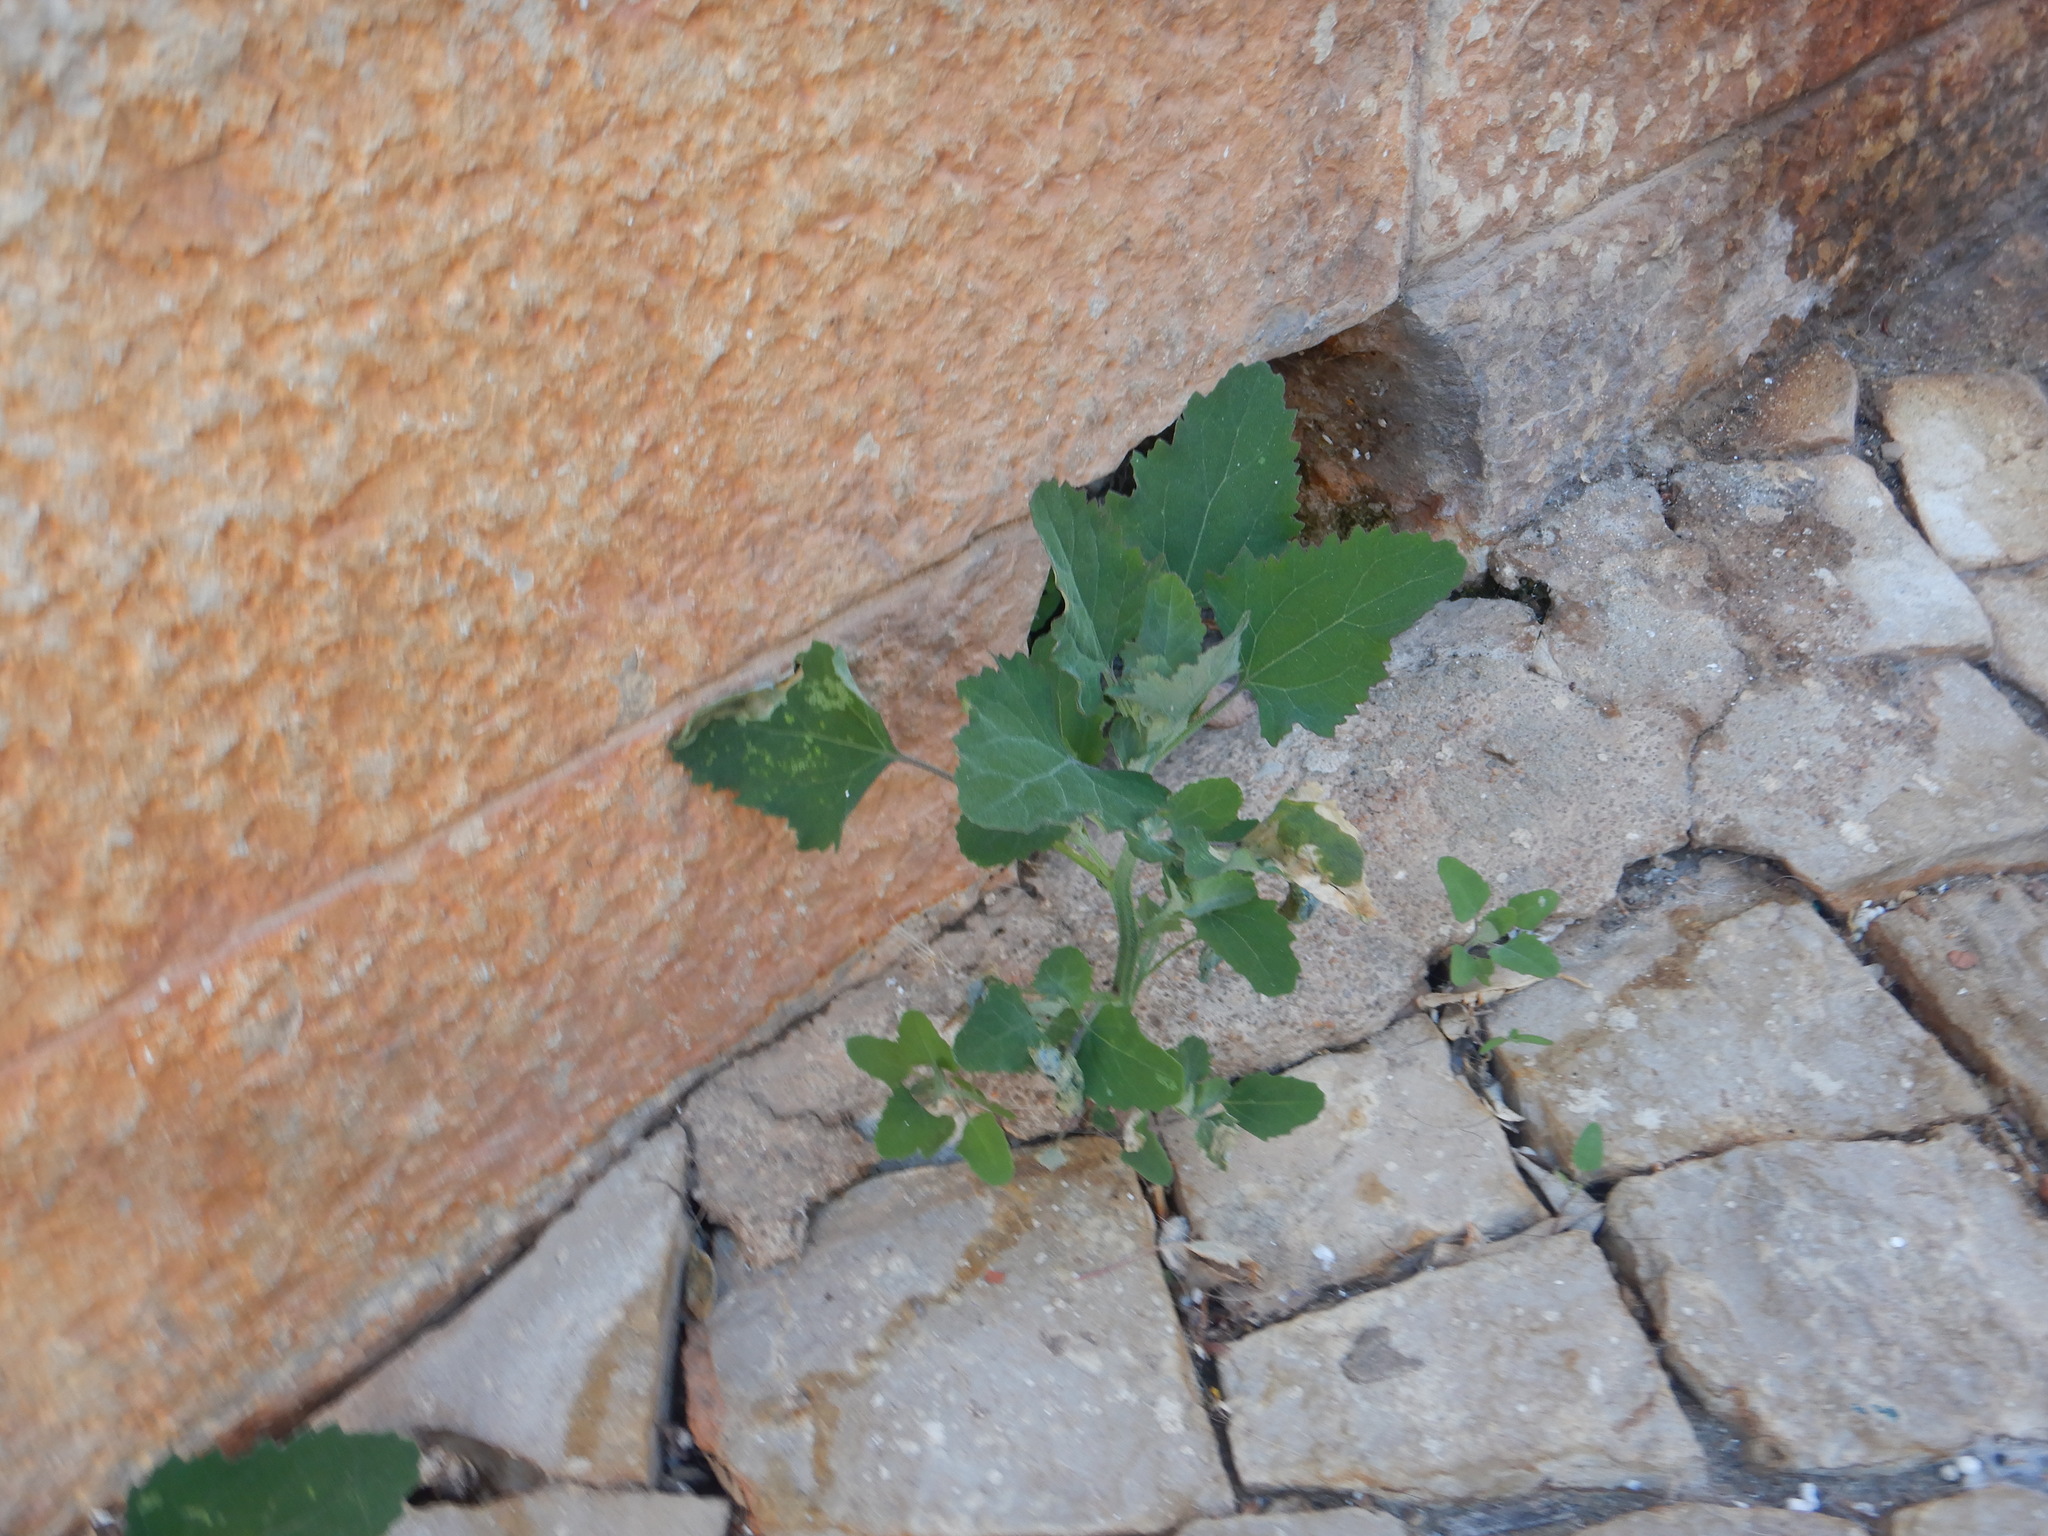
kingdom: Plantae
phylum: Tracheophyta
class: Magnoliopsida
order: Caryophyllales
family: Amaranthaceae
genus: Chenopodium
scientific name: Chenopodium album
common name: Fat-hen
